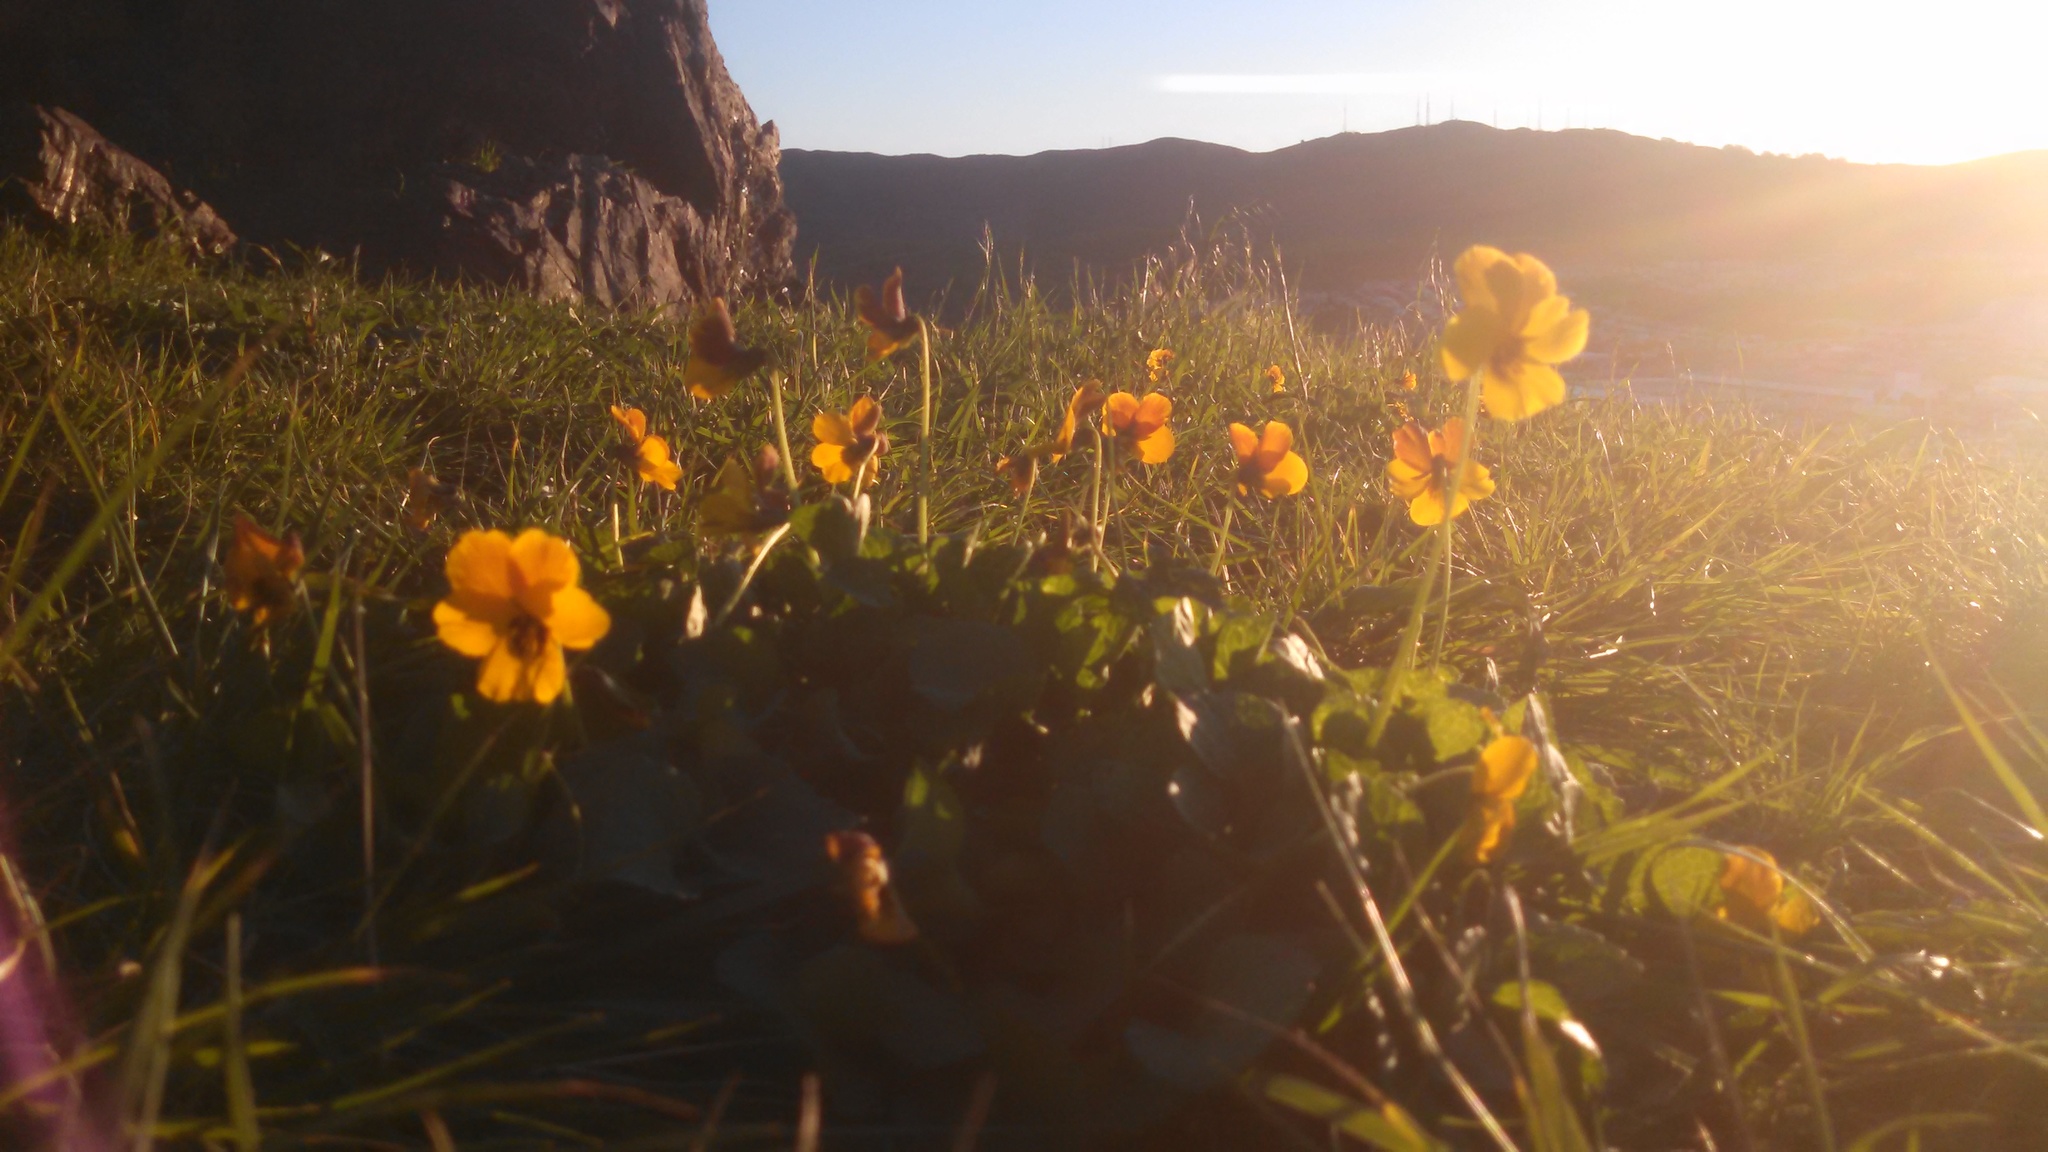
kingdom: Plantae
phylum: Tracheophyta
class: Magnoliopsida
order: Malpighiales
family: Violaceae
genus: Viola
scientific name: Viola pedunculata
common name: California golden violet
